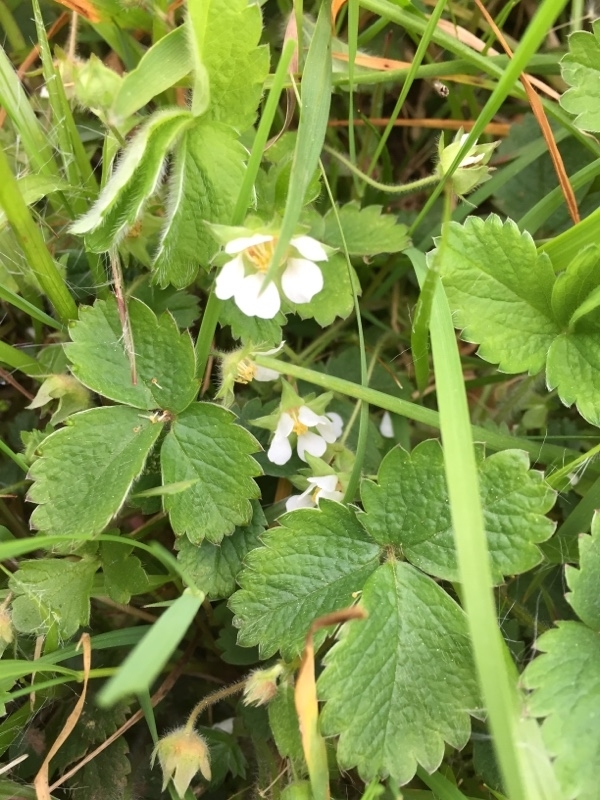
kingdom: Plantae
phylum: Tracheophyta
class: Magnoliopsida
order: Rosales
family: Rosaceae
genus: Potentilla
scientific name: Potentilla sterilis
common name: Barren strawberry
